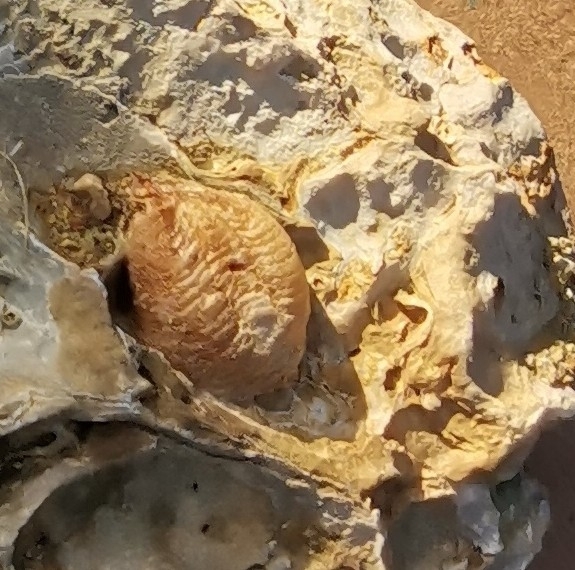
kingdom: Animalia
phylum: Arthropoda
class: Insecta
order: Mantodea
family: Mantidae
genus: Mantis
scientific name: Mantis religiosa
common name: Praying mantis
